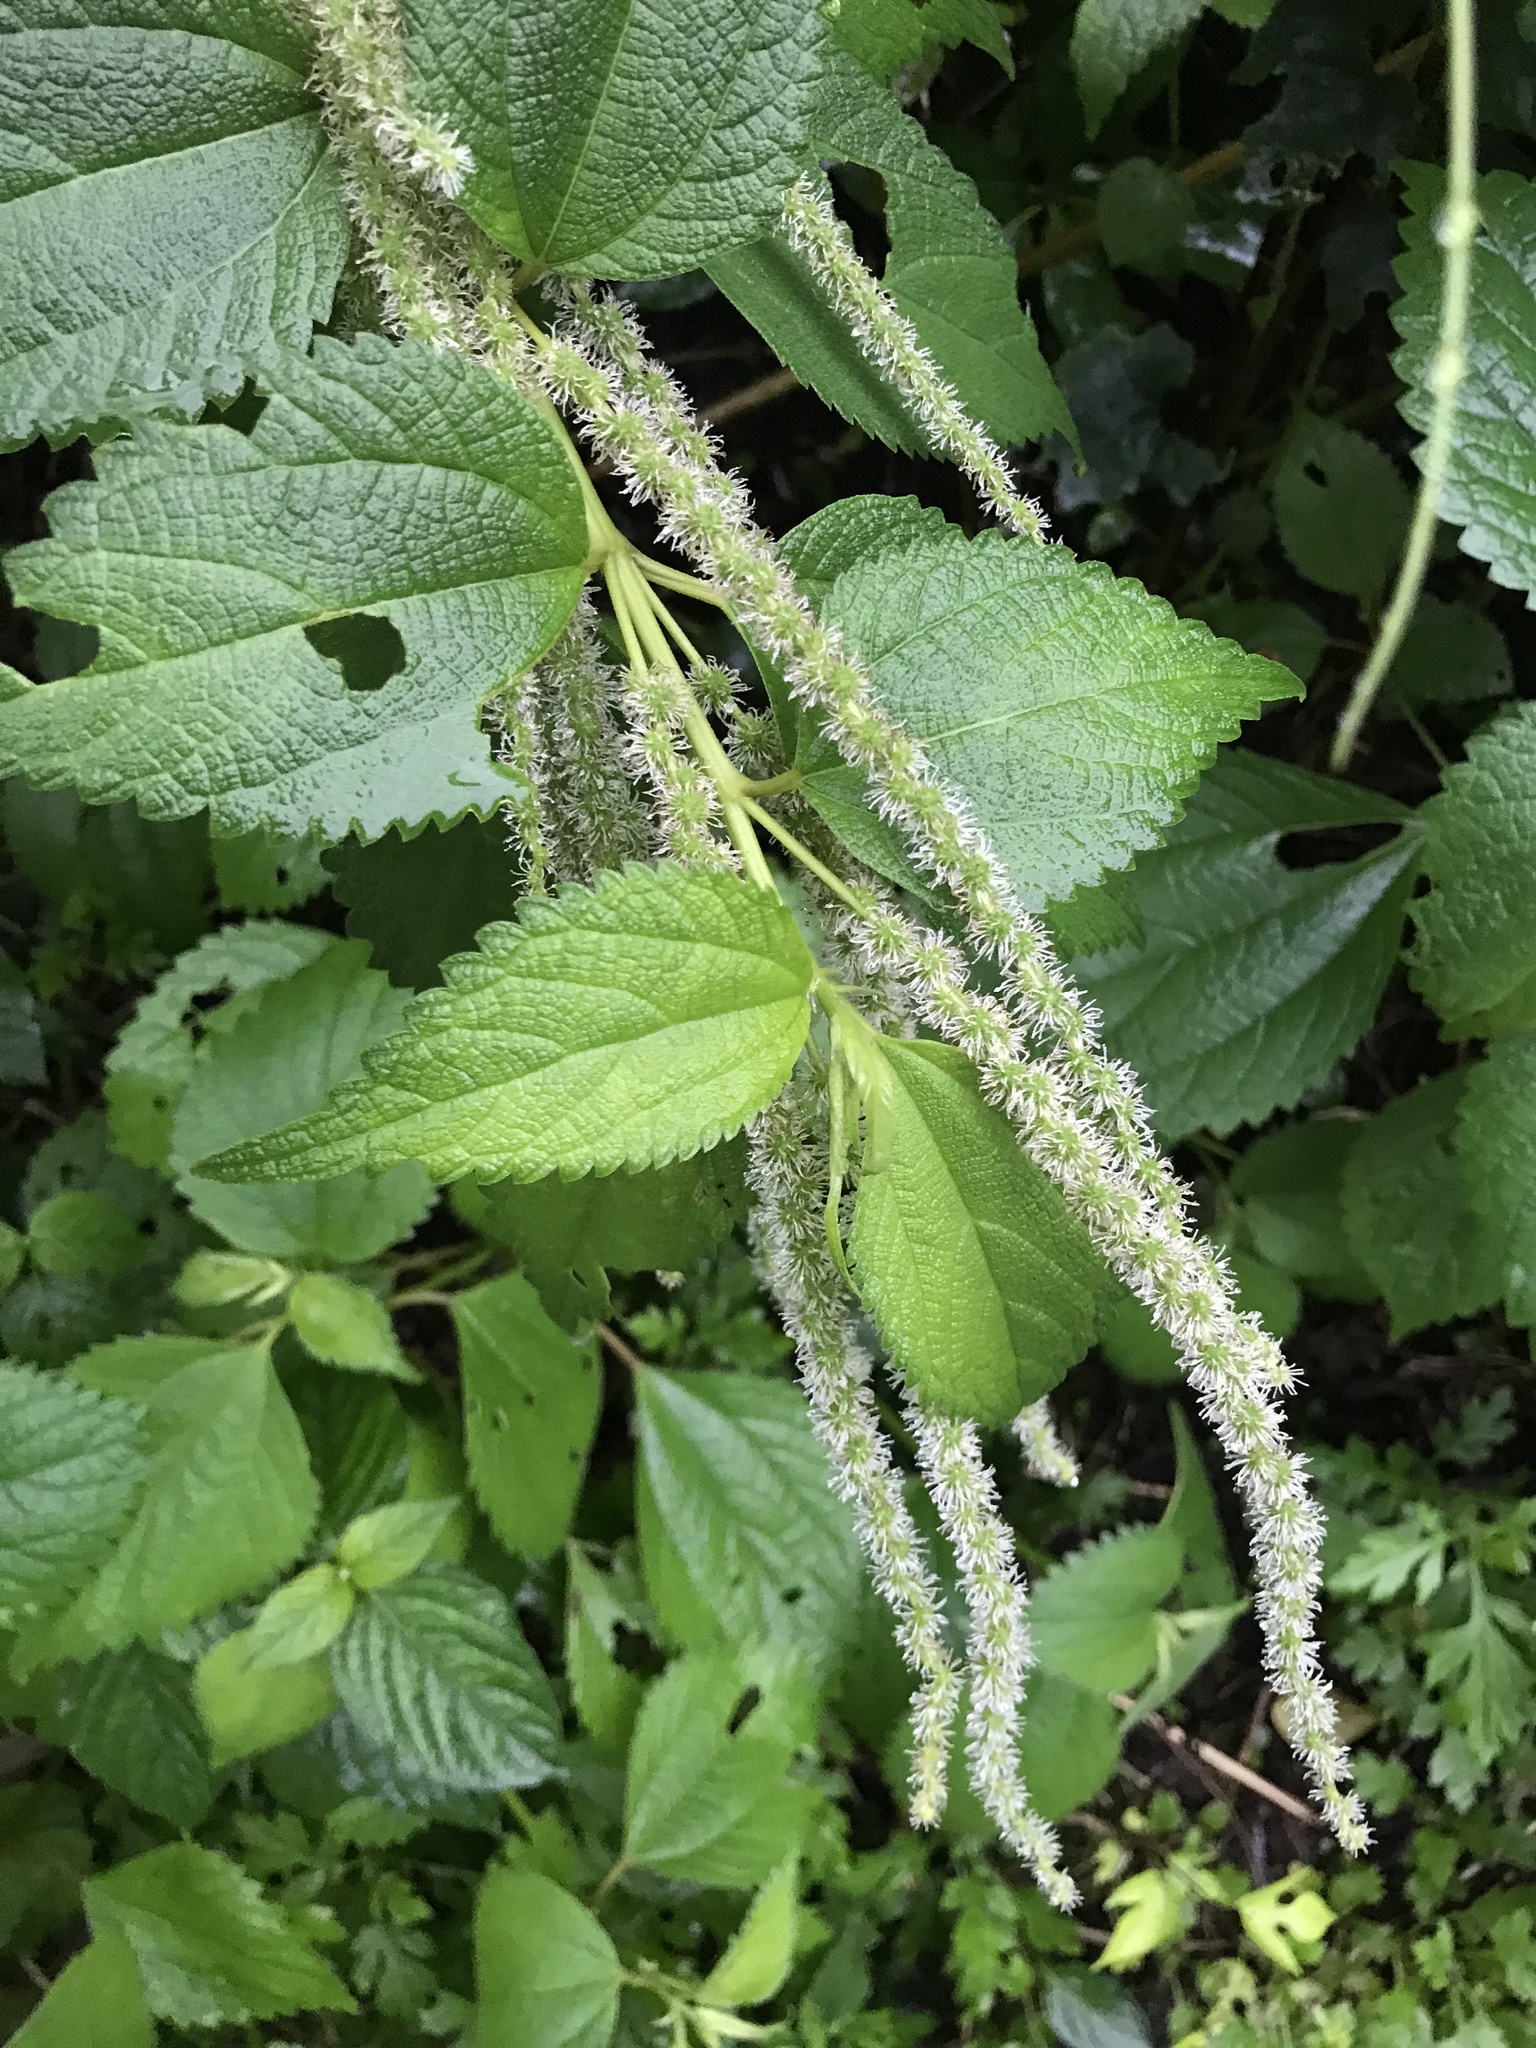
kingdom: Plantae
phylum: Tracheophyta
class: Magnoliopsida
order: Rosales
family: Urticaceae
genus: Boehmeria
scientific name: Boehmeria sieboldiana
